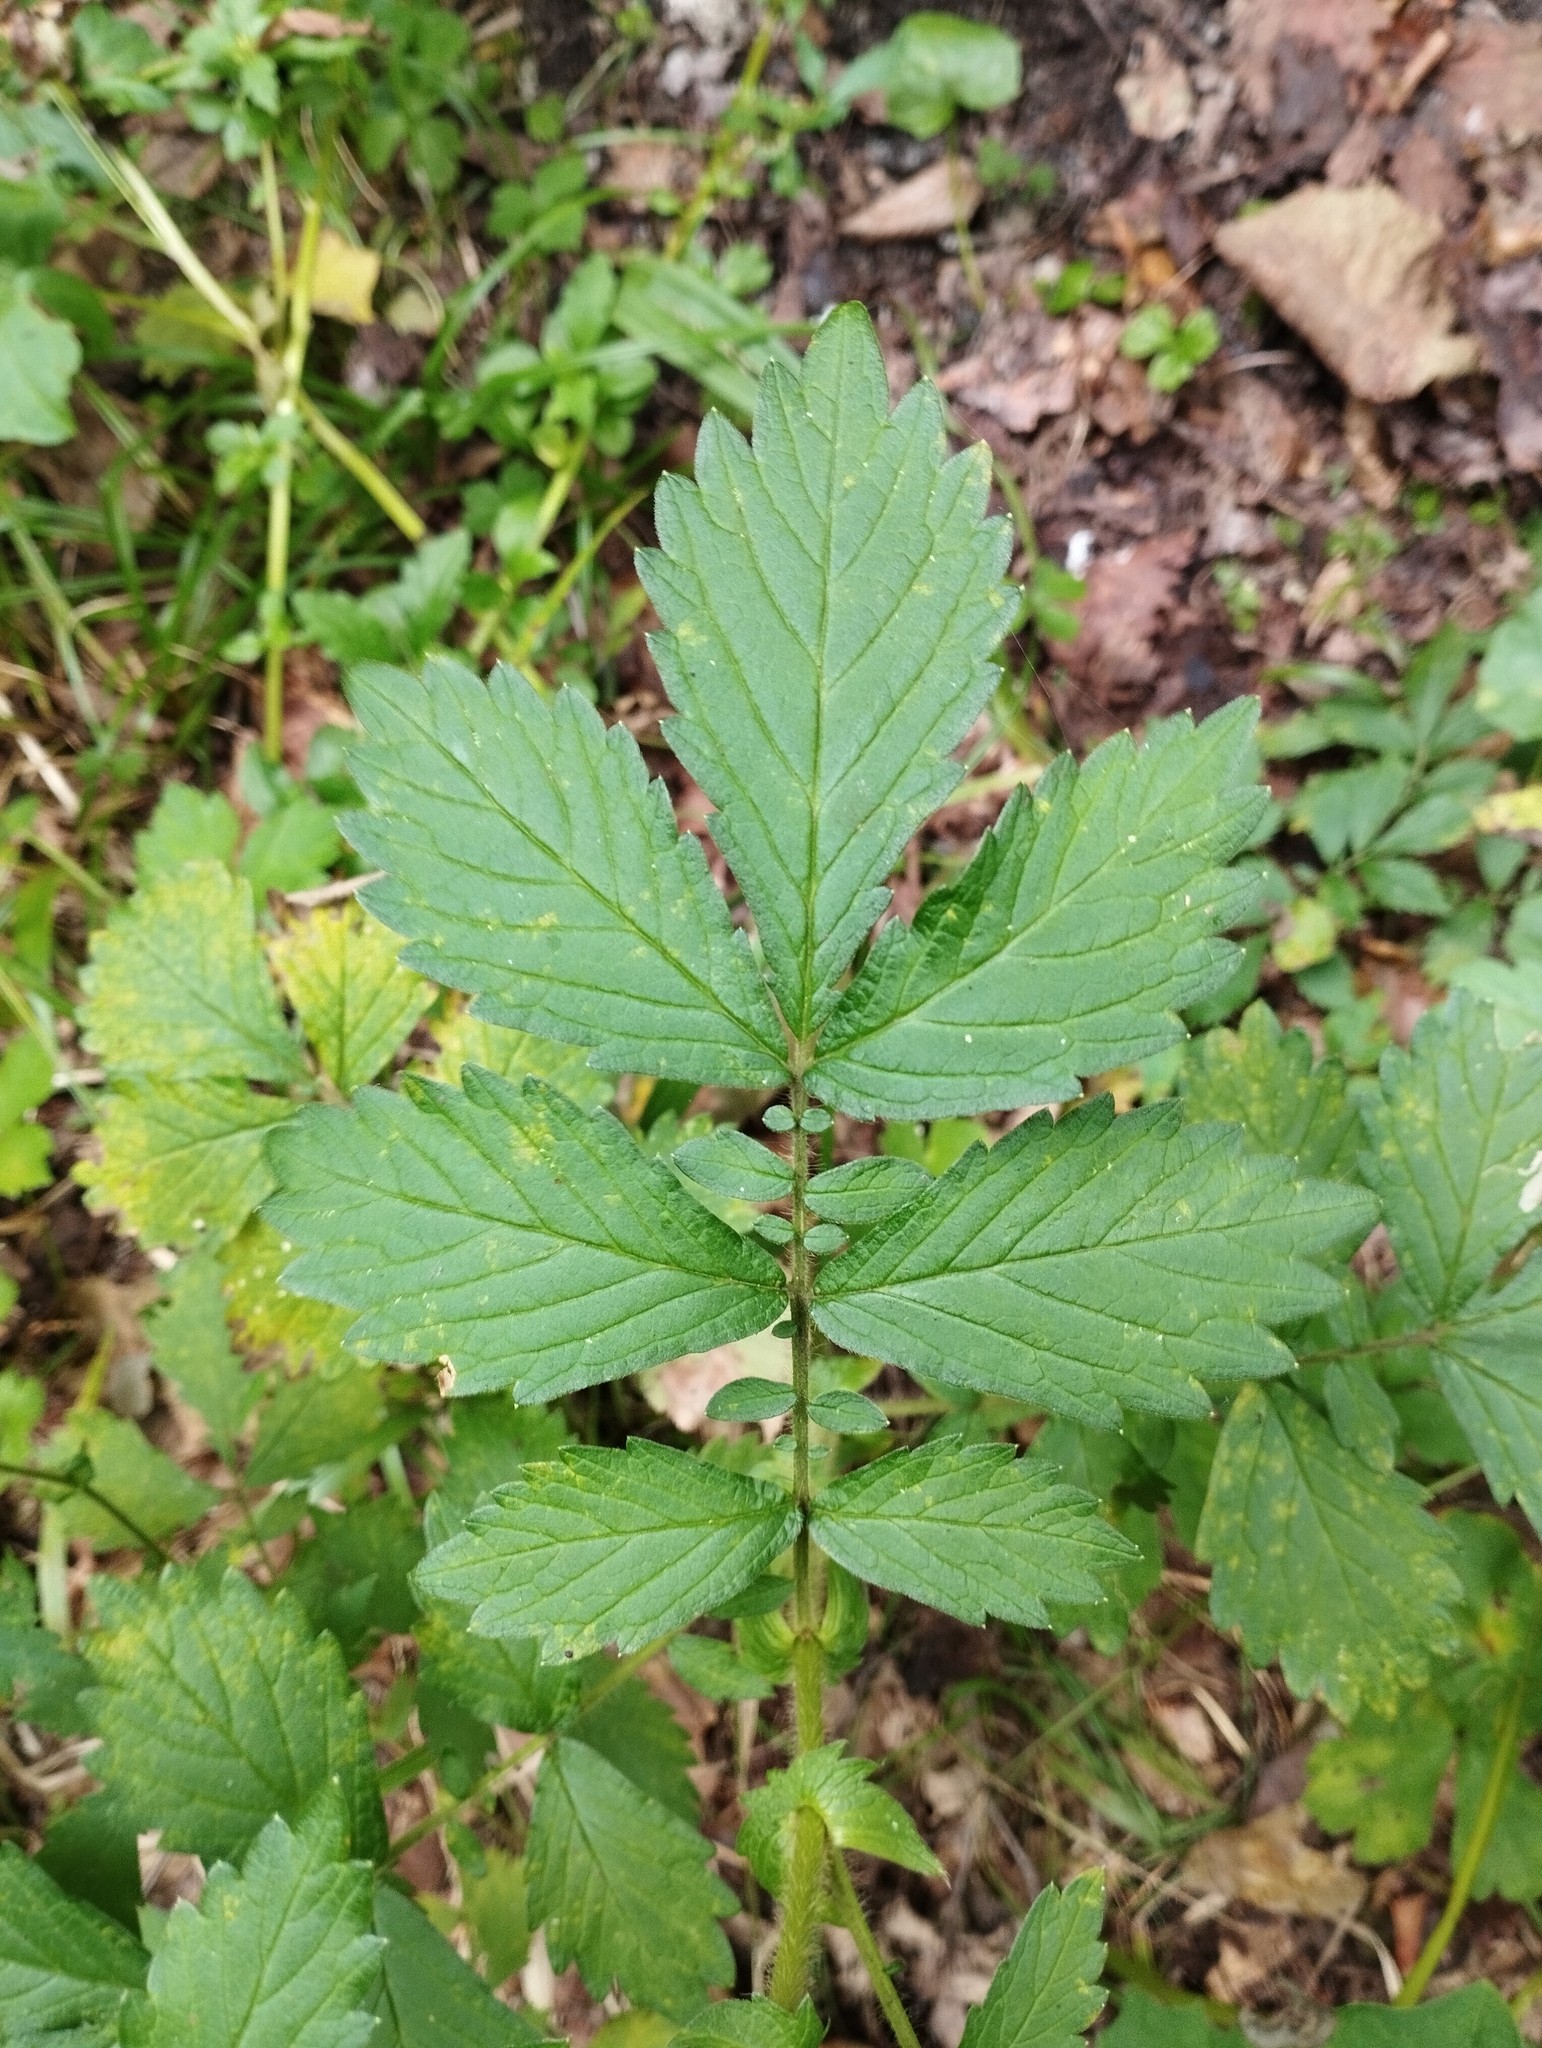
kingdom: Plantae
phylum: Tracheophyta
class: Magnoliopsida
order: Rosales
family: Rosaceae
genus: Agrimonia
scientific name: Agrimonia pilosa
